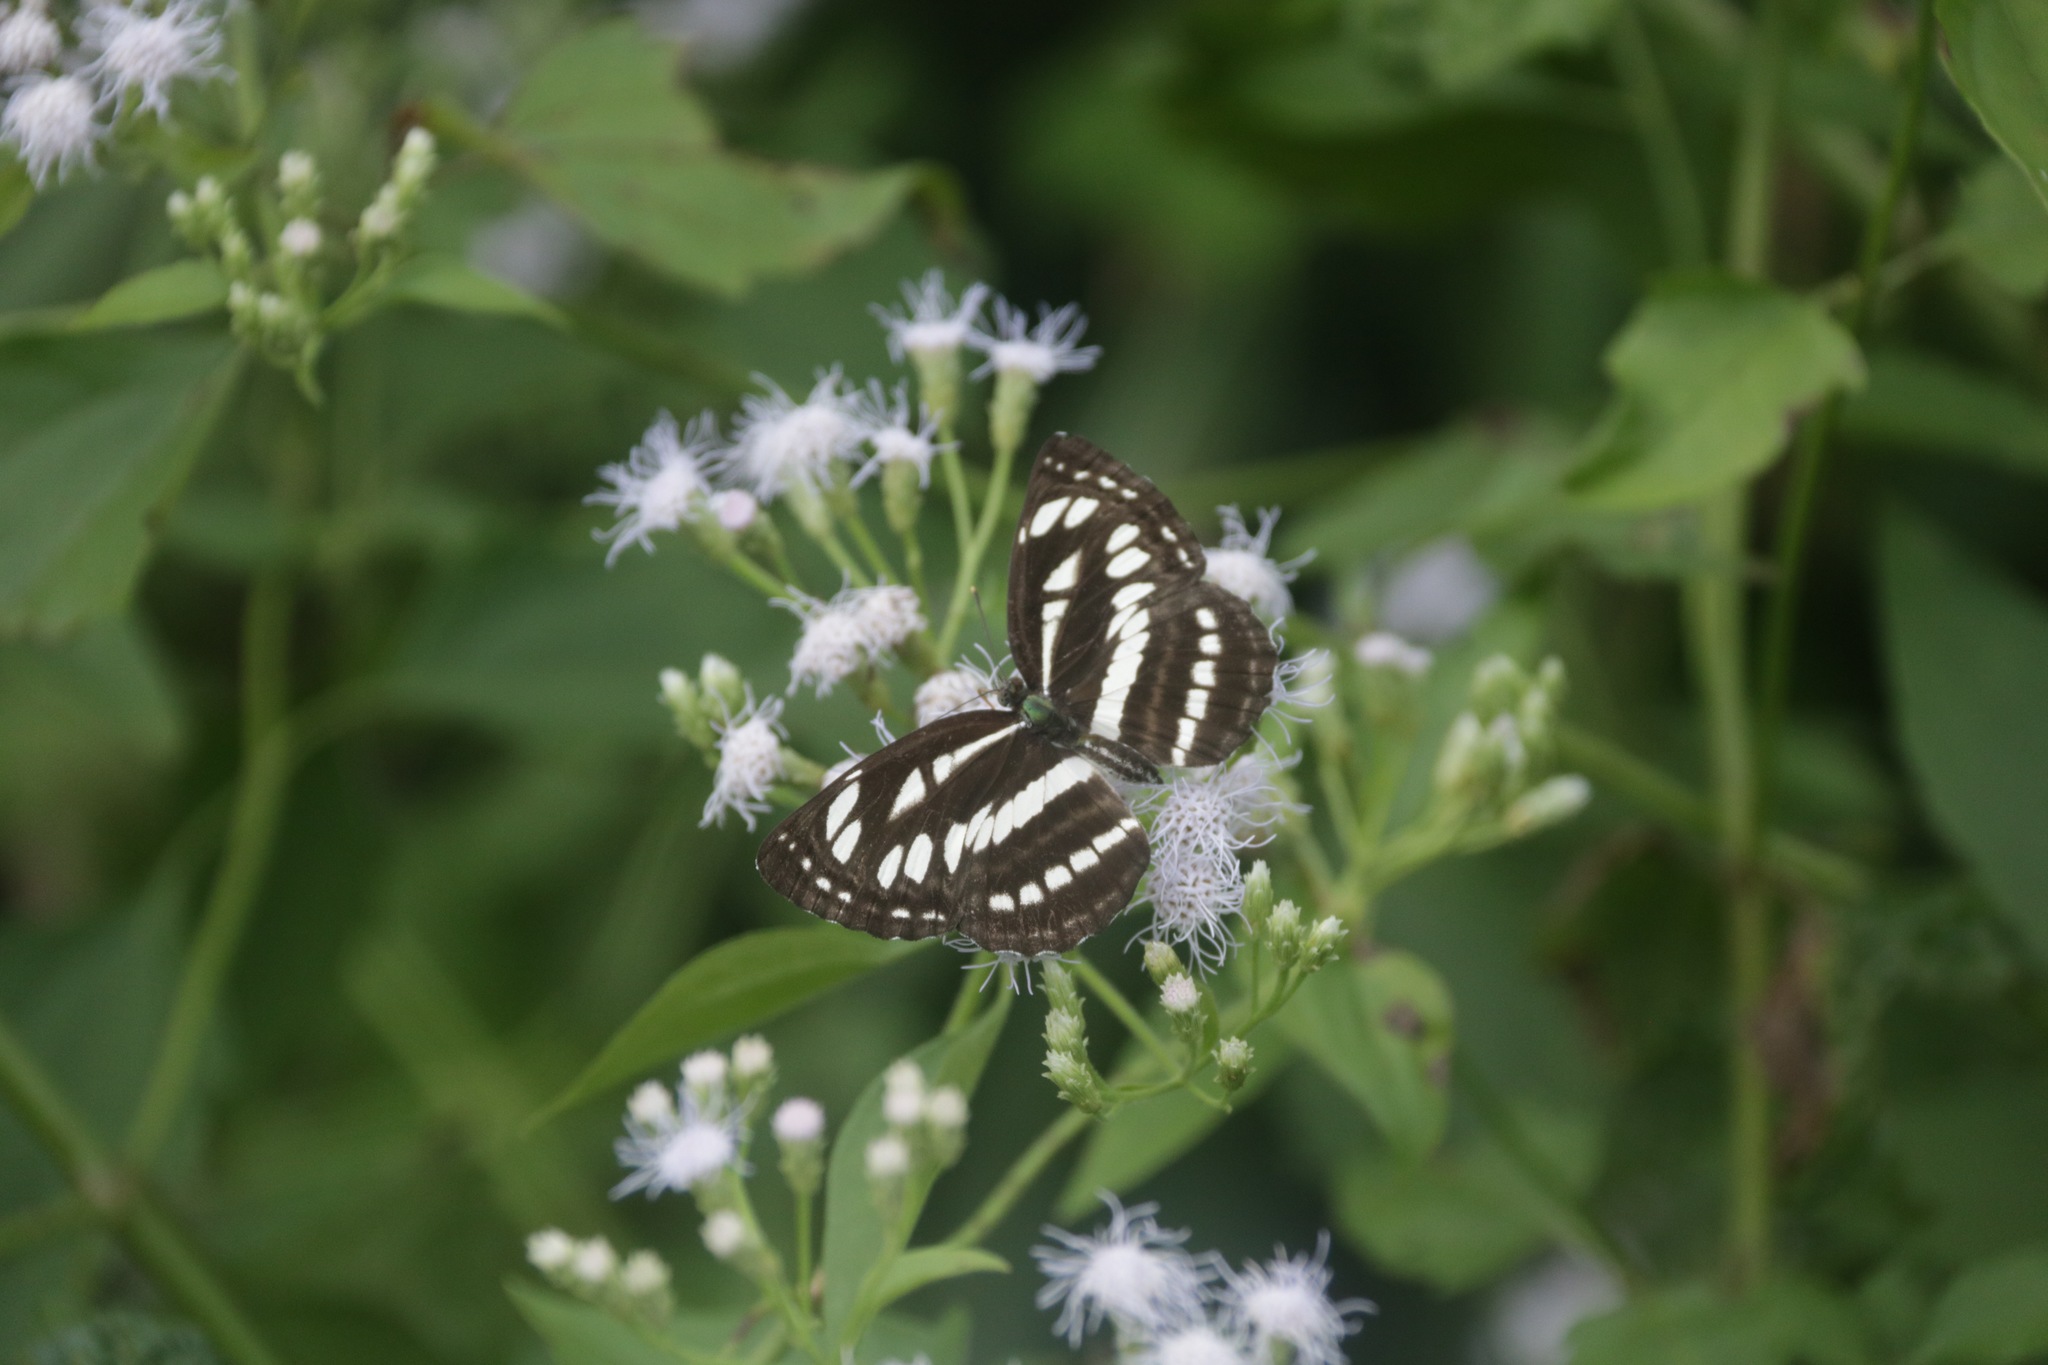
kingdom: Animalia
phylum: Arthropoda
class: Insecta
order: Lepidoptera
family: Nymphalidae
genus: Neptis
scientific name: Neptis hylas
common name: Common sailer
